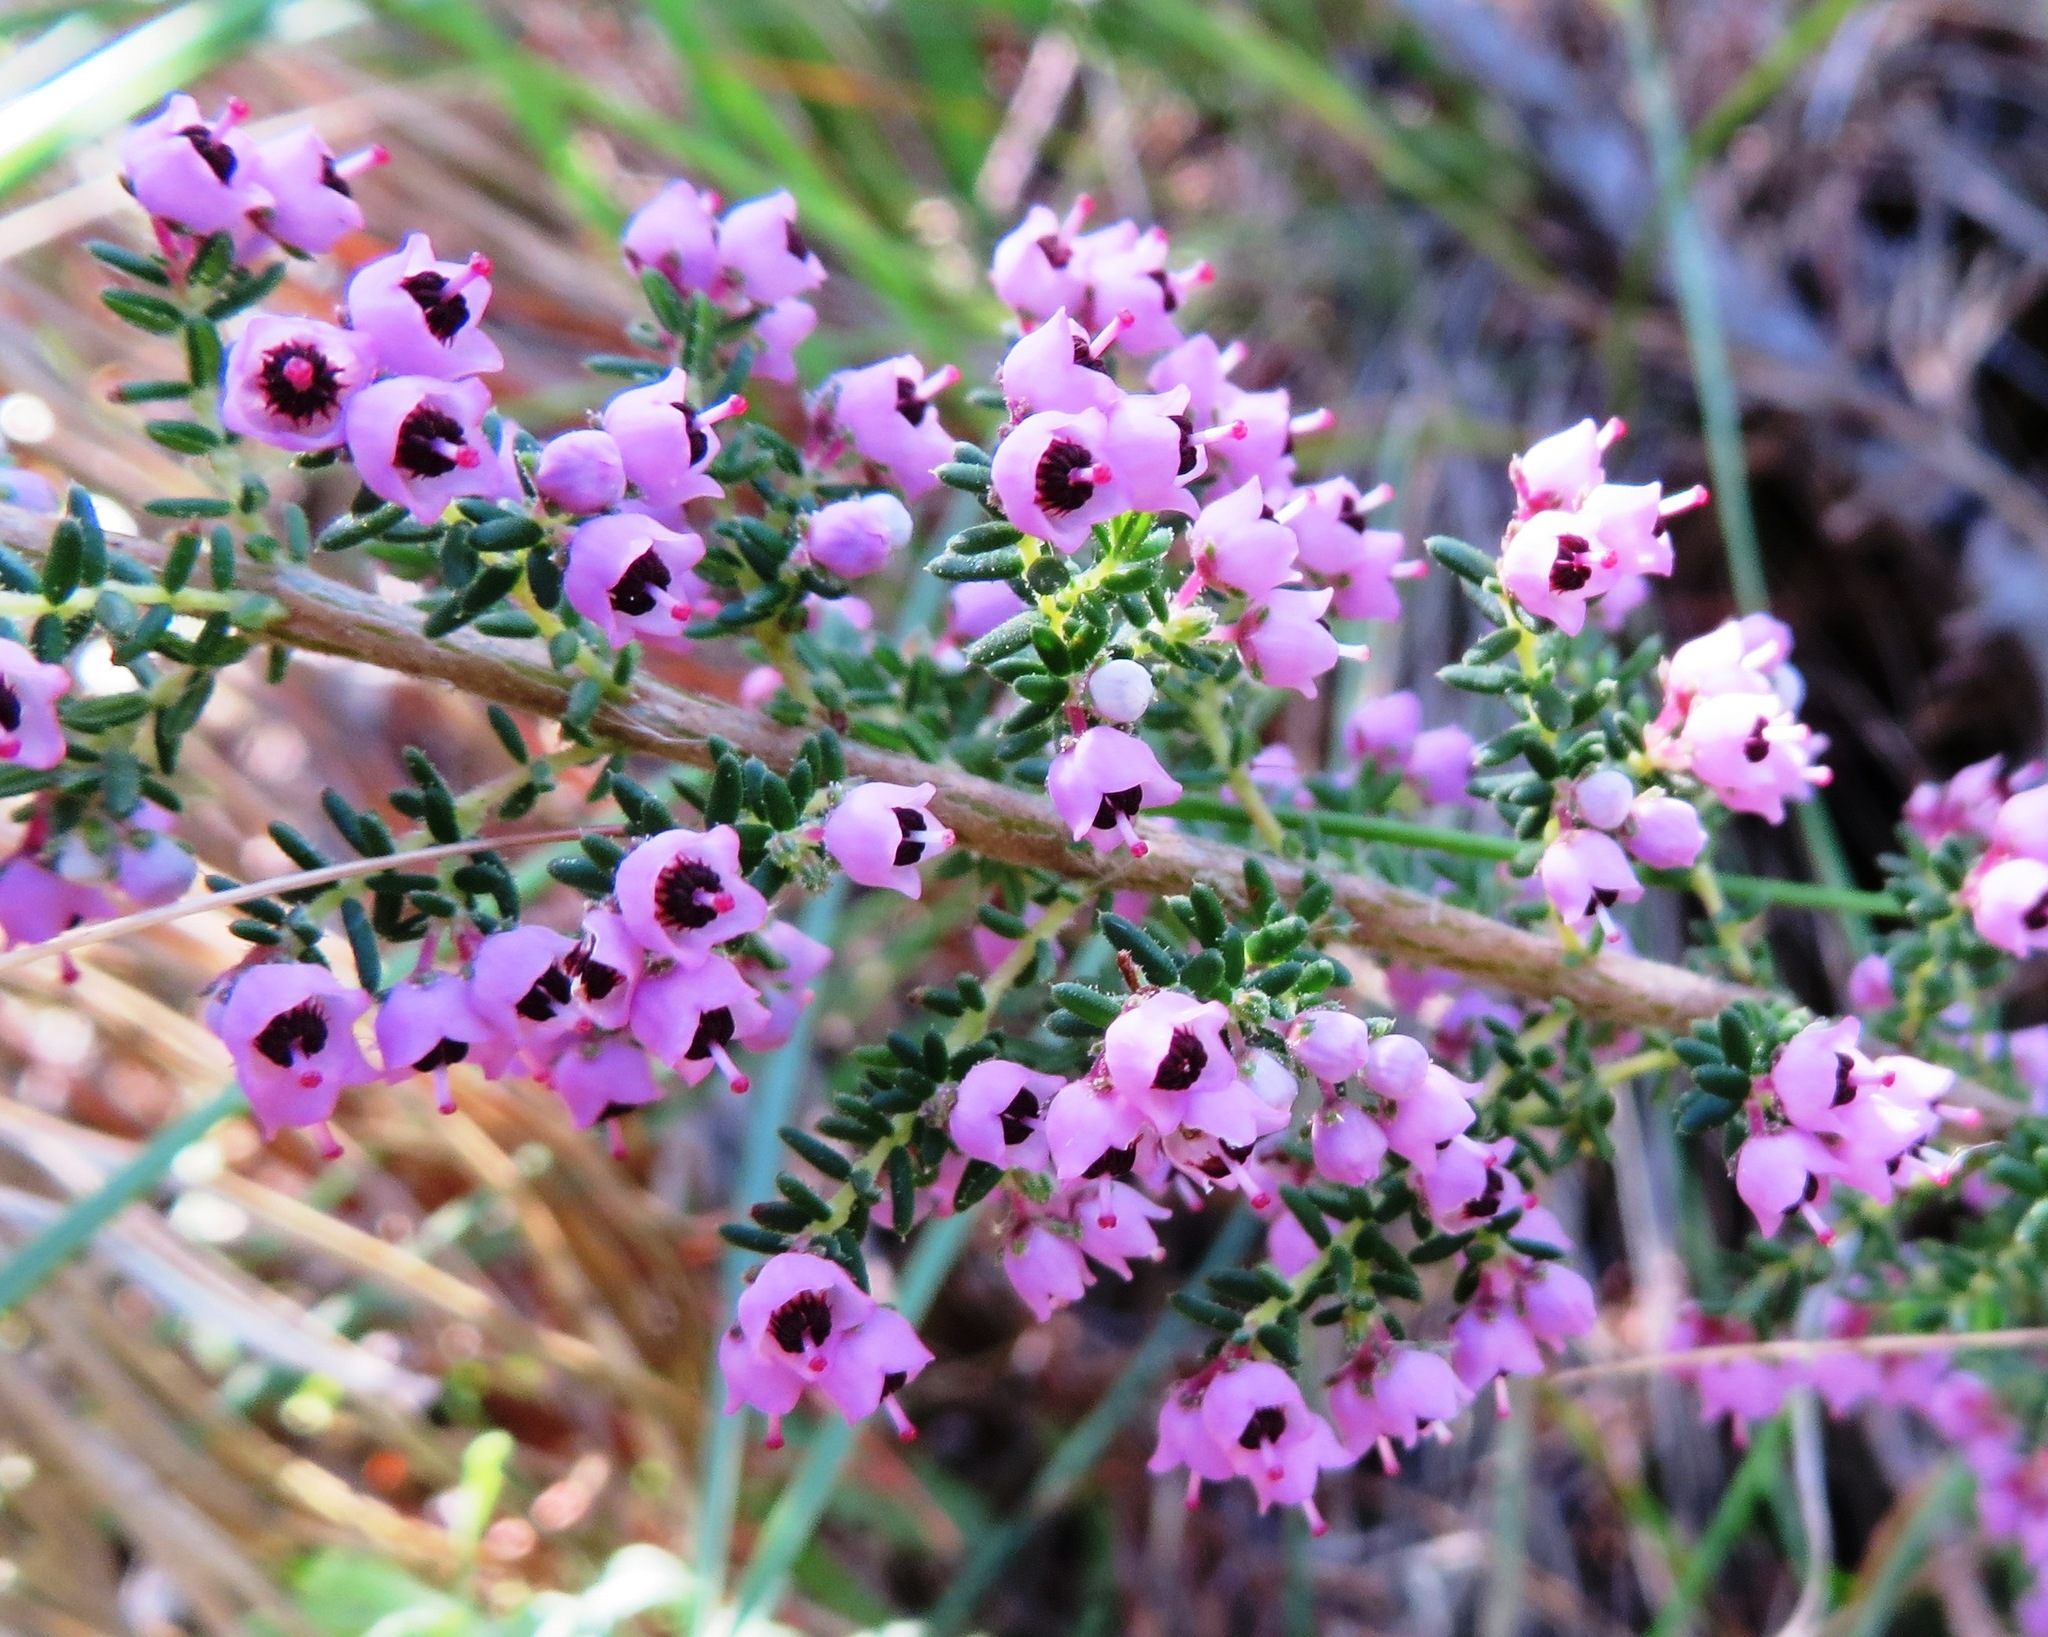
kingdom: Plantae
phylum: Tracheophyta
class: Magnoliopsida
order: Ericales
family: Ericaceae
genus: Erica
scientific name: Erica bicolor
